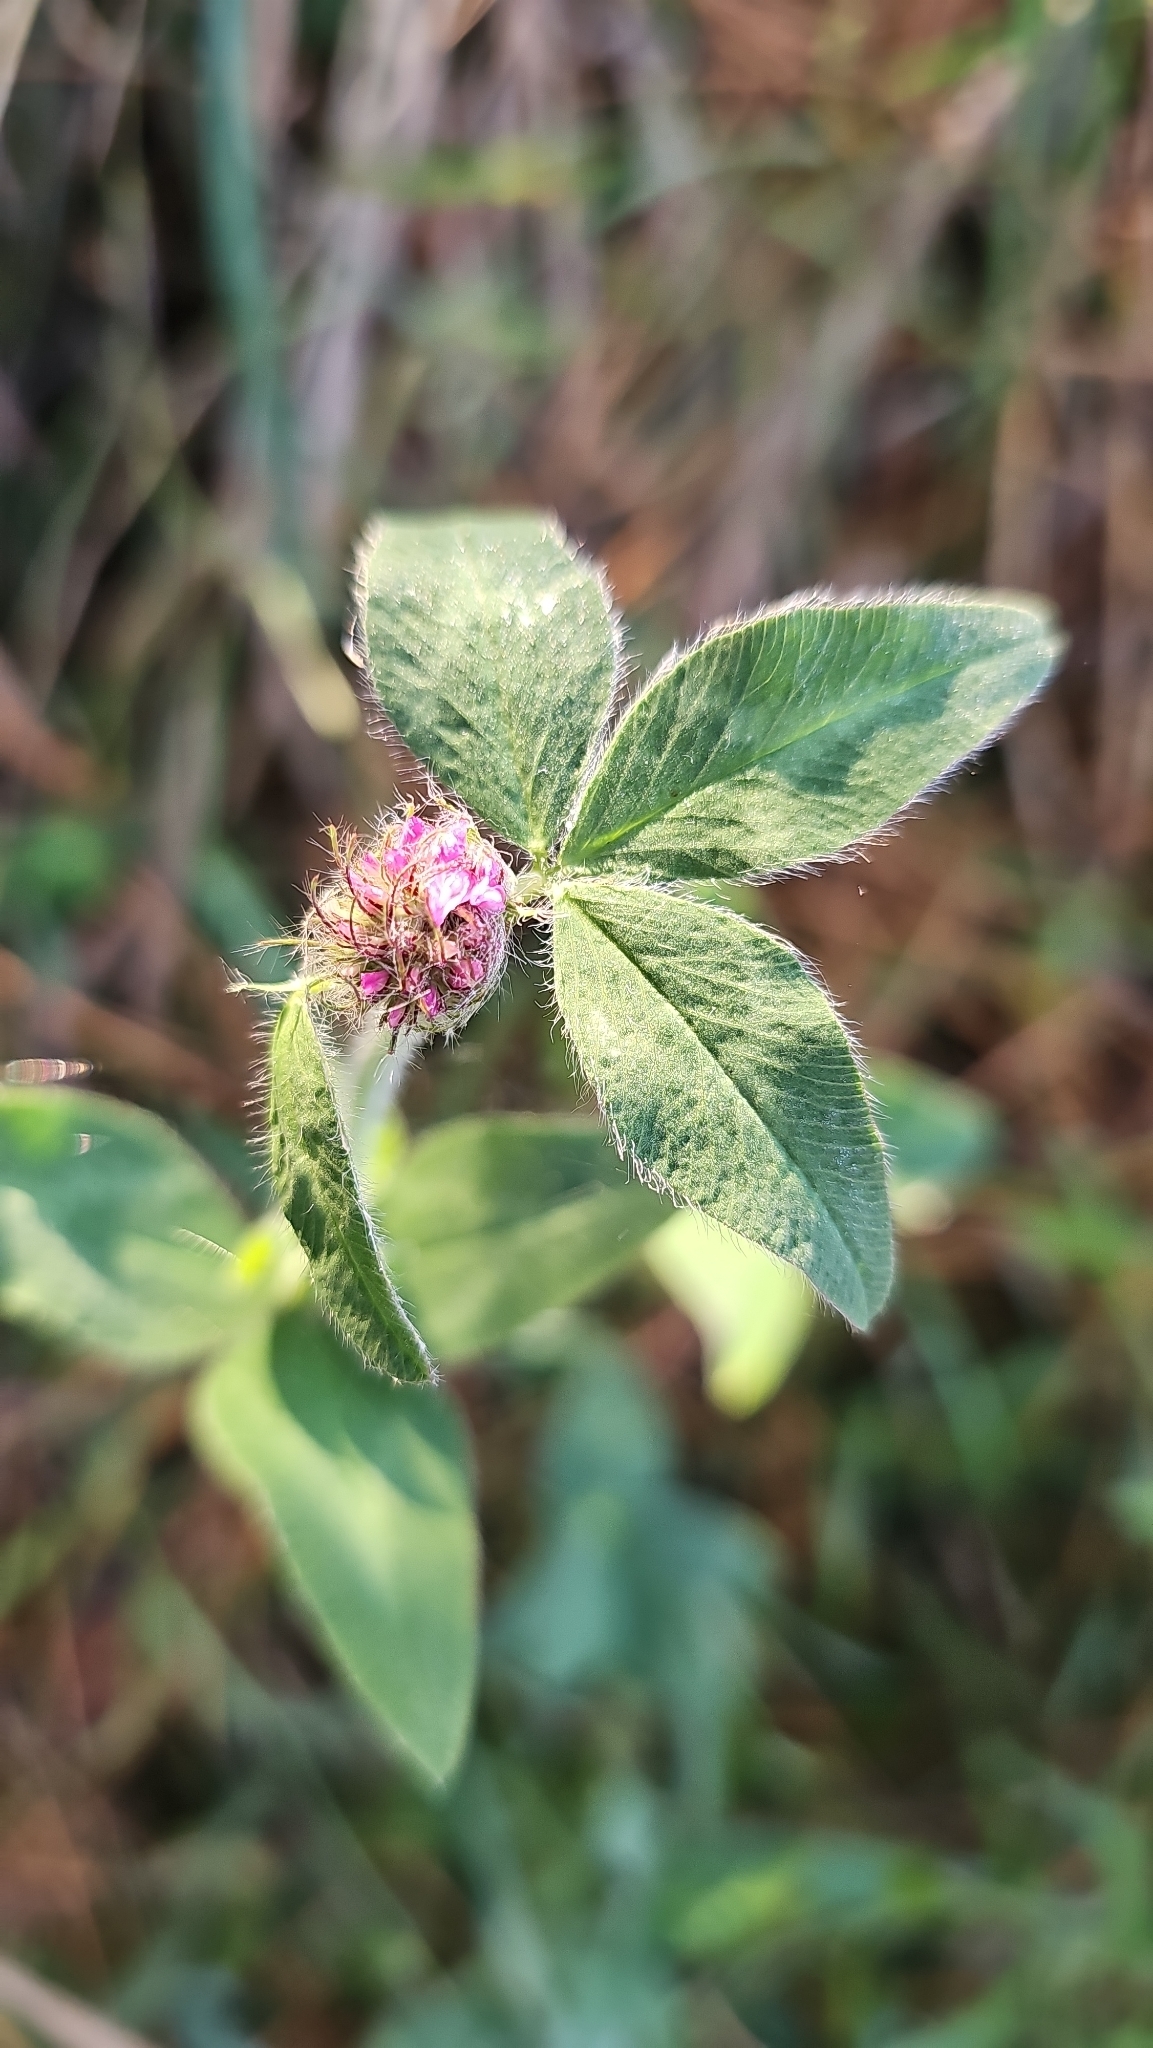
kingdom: Plantae
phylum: Tracheophyta
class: Magnoliopsida
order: Fabales
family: Fabaceae
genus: Trifolium
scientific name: Trifolium pratense
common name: Red clover
